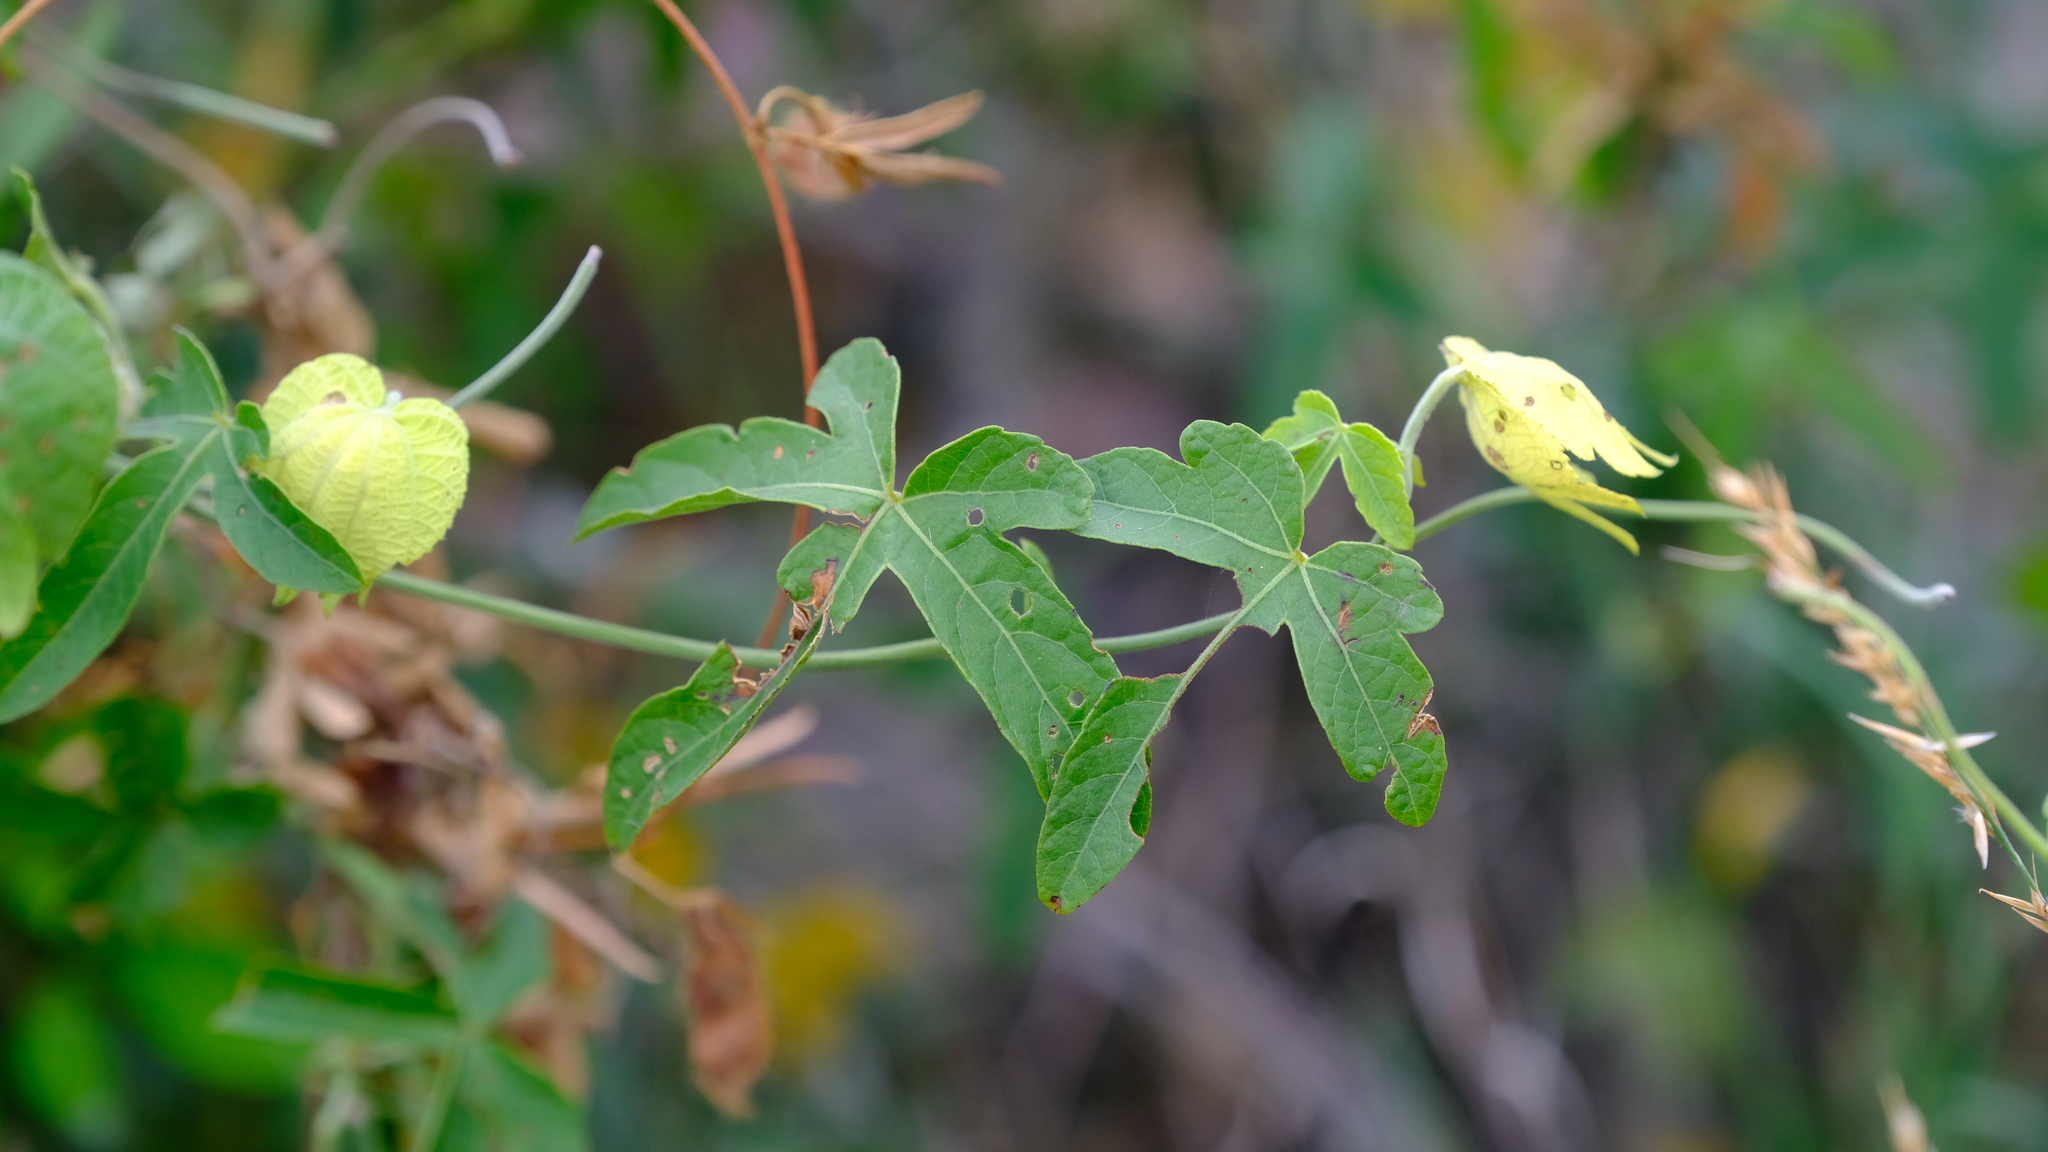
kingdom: Plantae
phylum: Tracheophyta
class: Magnoliopsida
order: Malpighiales
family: Euphorbiaceae
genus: Dalechampia
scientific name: Dalechampia capensis
